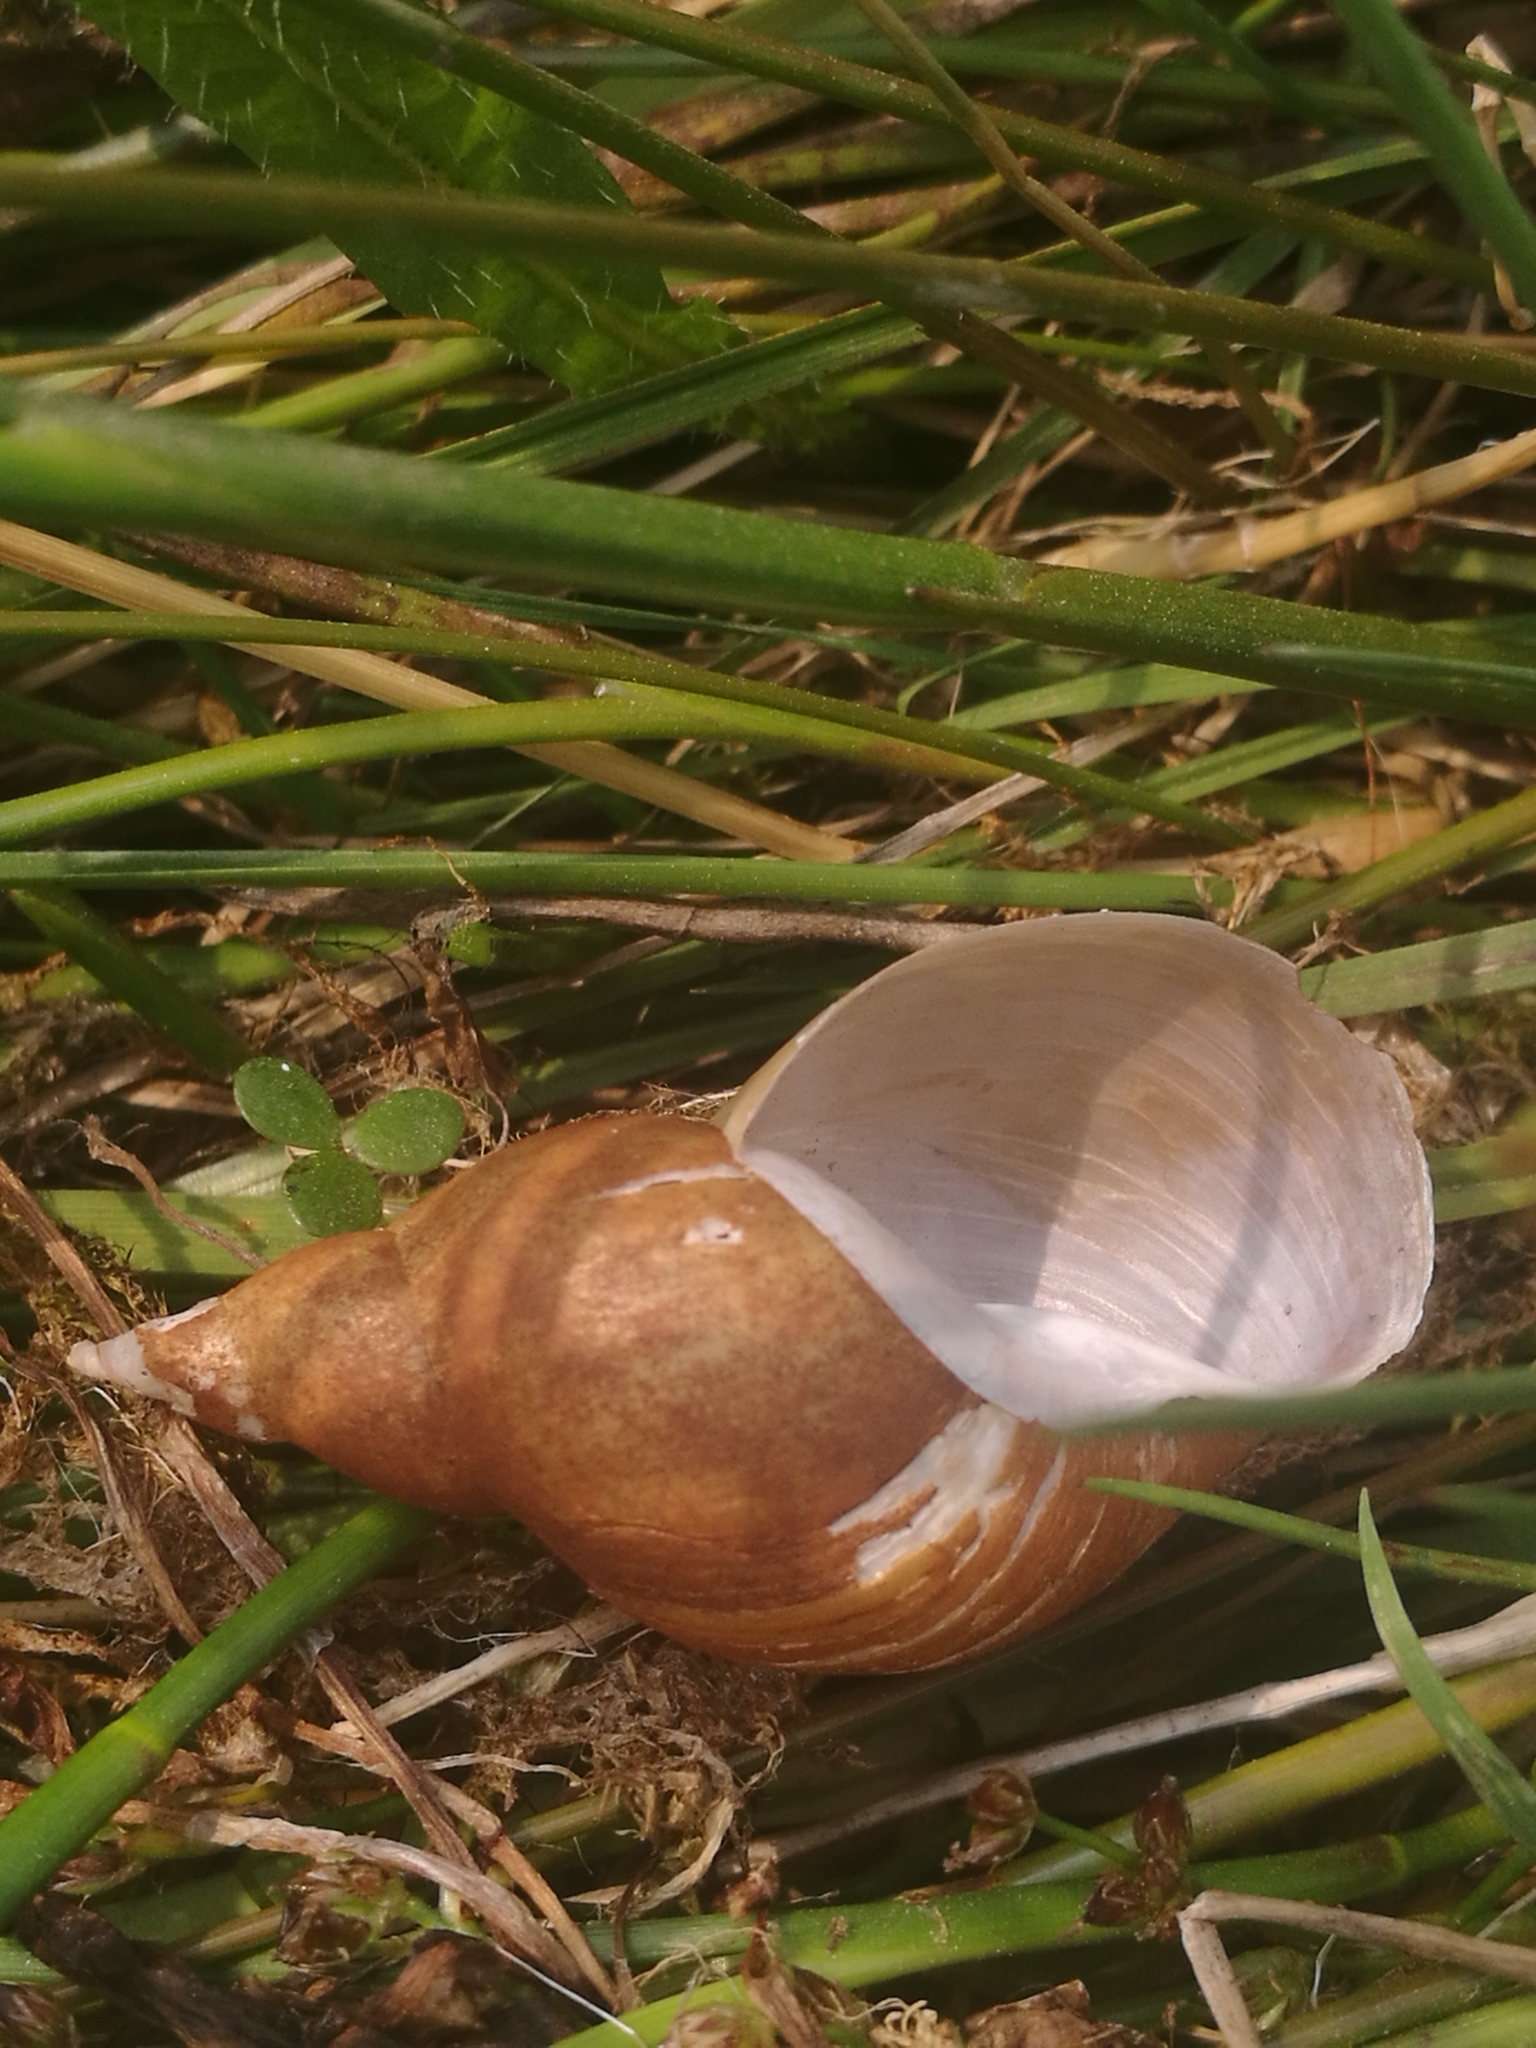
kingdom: Animalia
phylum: Mollusca
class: Gastropoda
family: Lymnaeidae
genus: Lymnaea
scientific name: Lymnaea stagnalis
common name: Great pond snail
